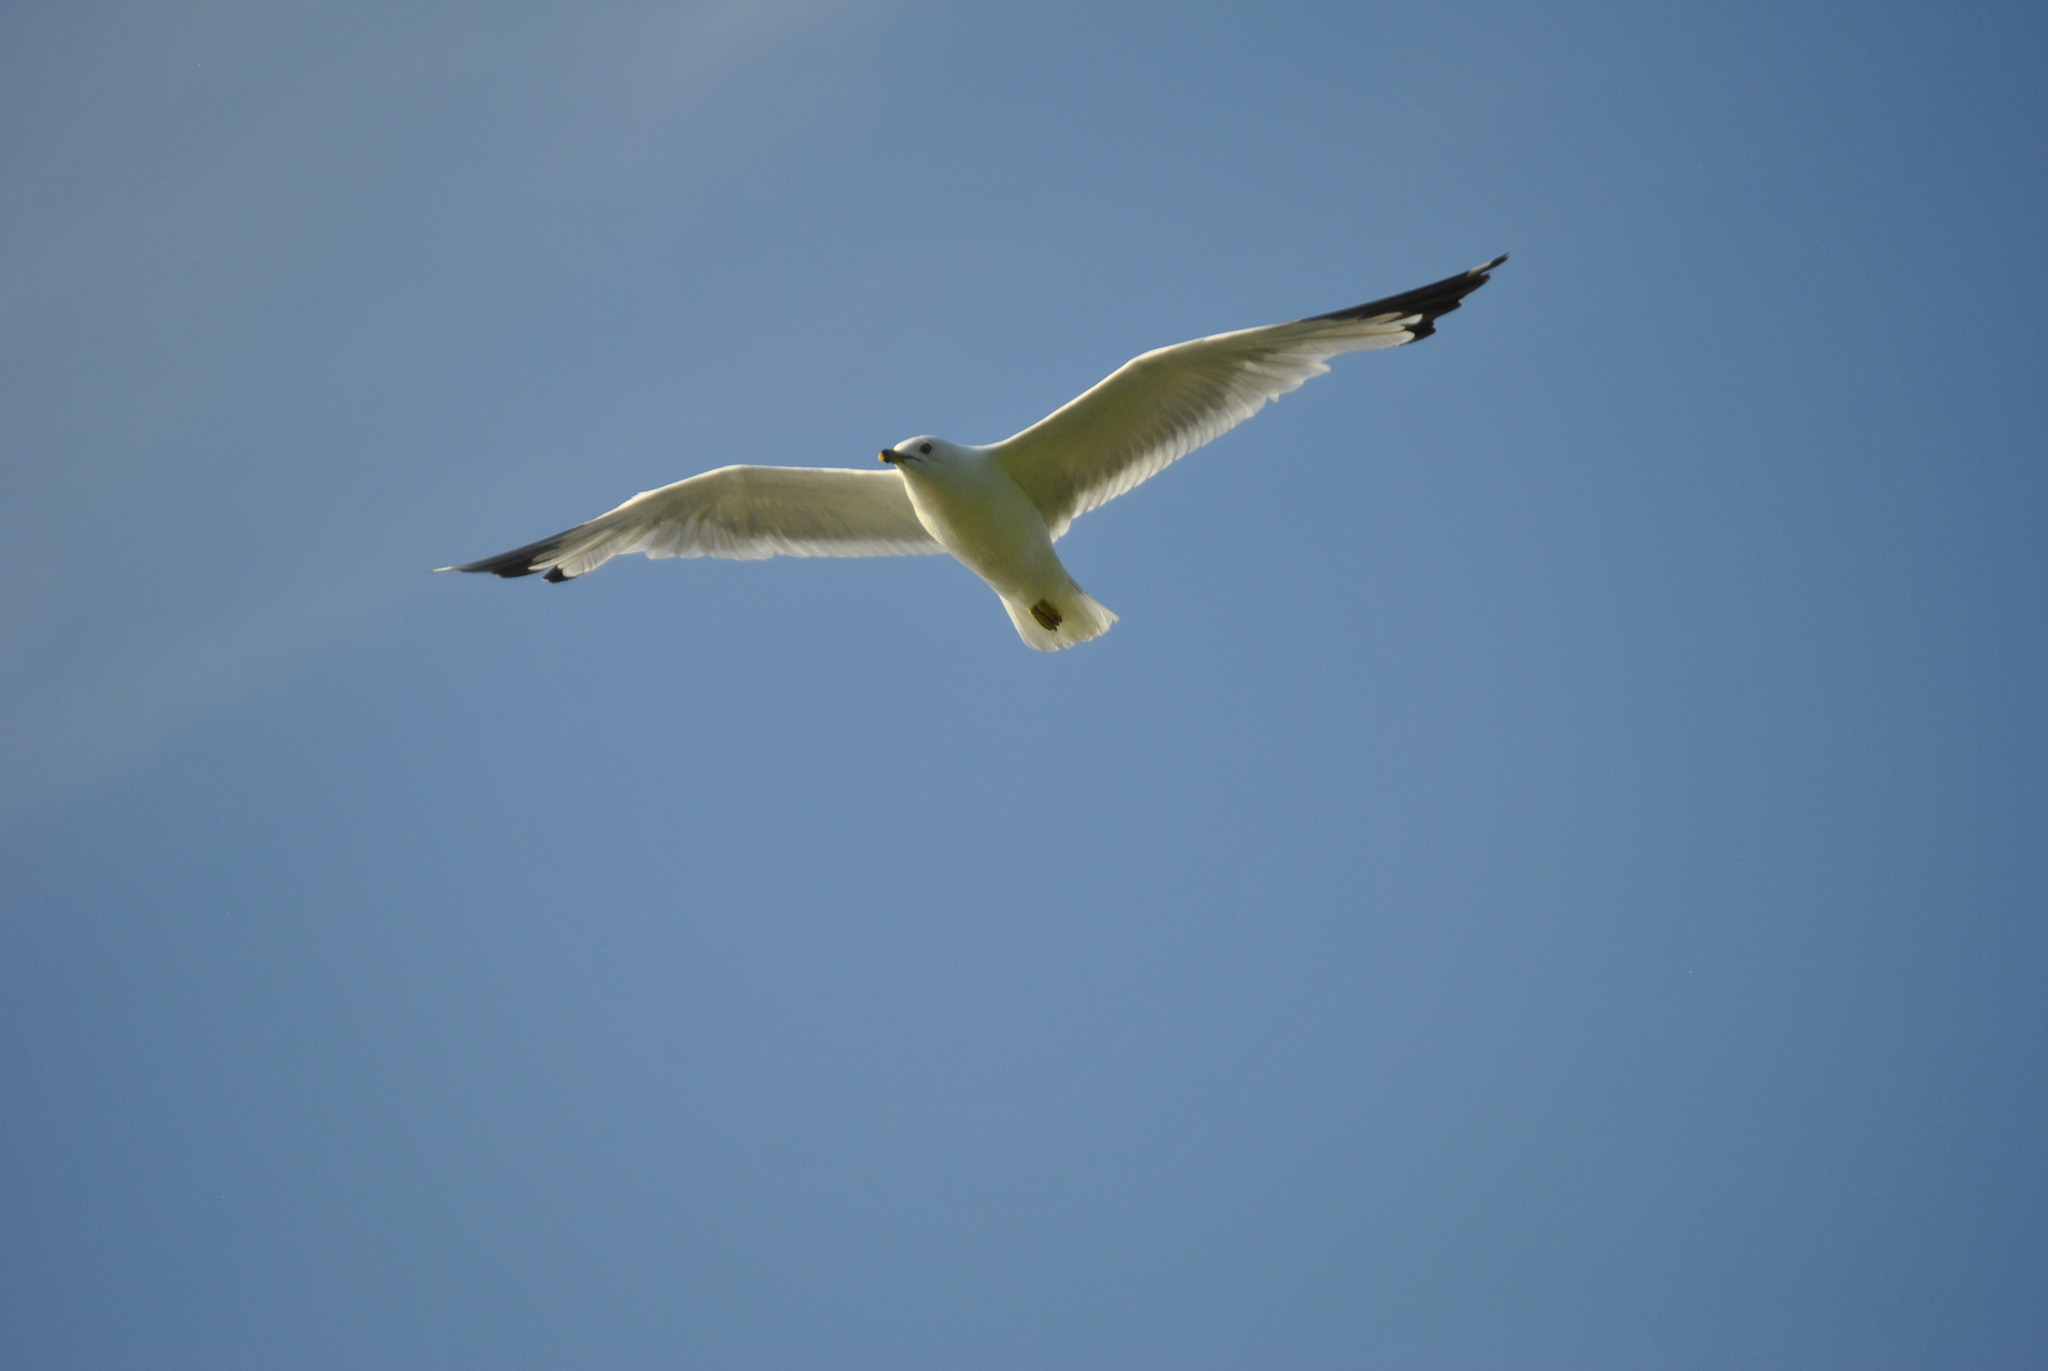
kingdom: Animalia
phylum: Chordata
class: Aves
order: Charadriiformes
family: Laridae
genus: Larus
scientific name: Larus delawarensis
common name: Ring-billed gull
